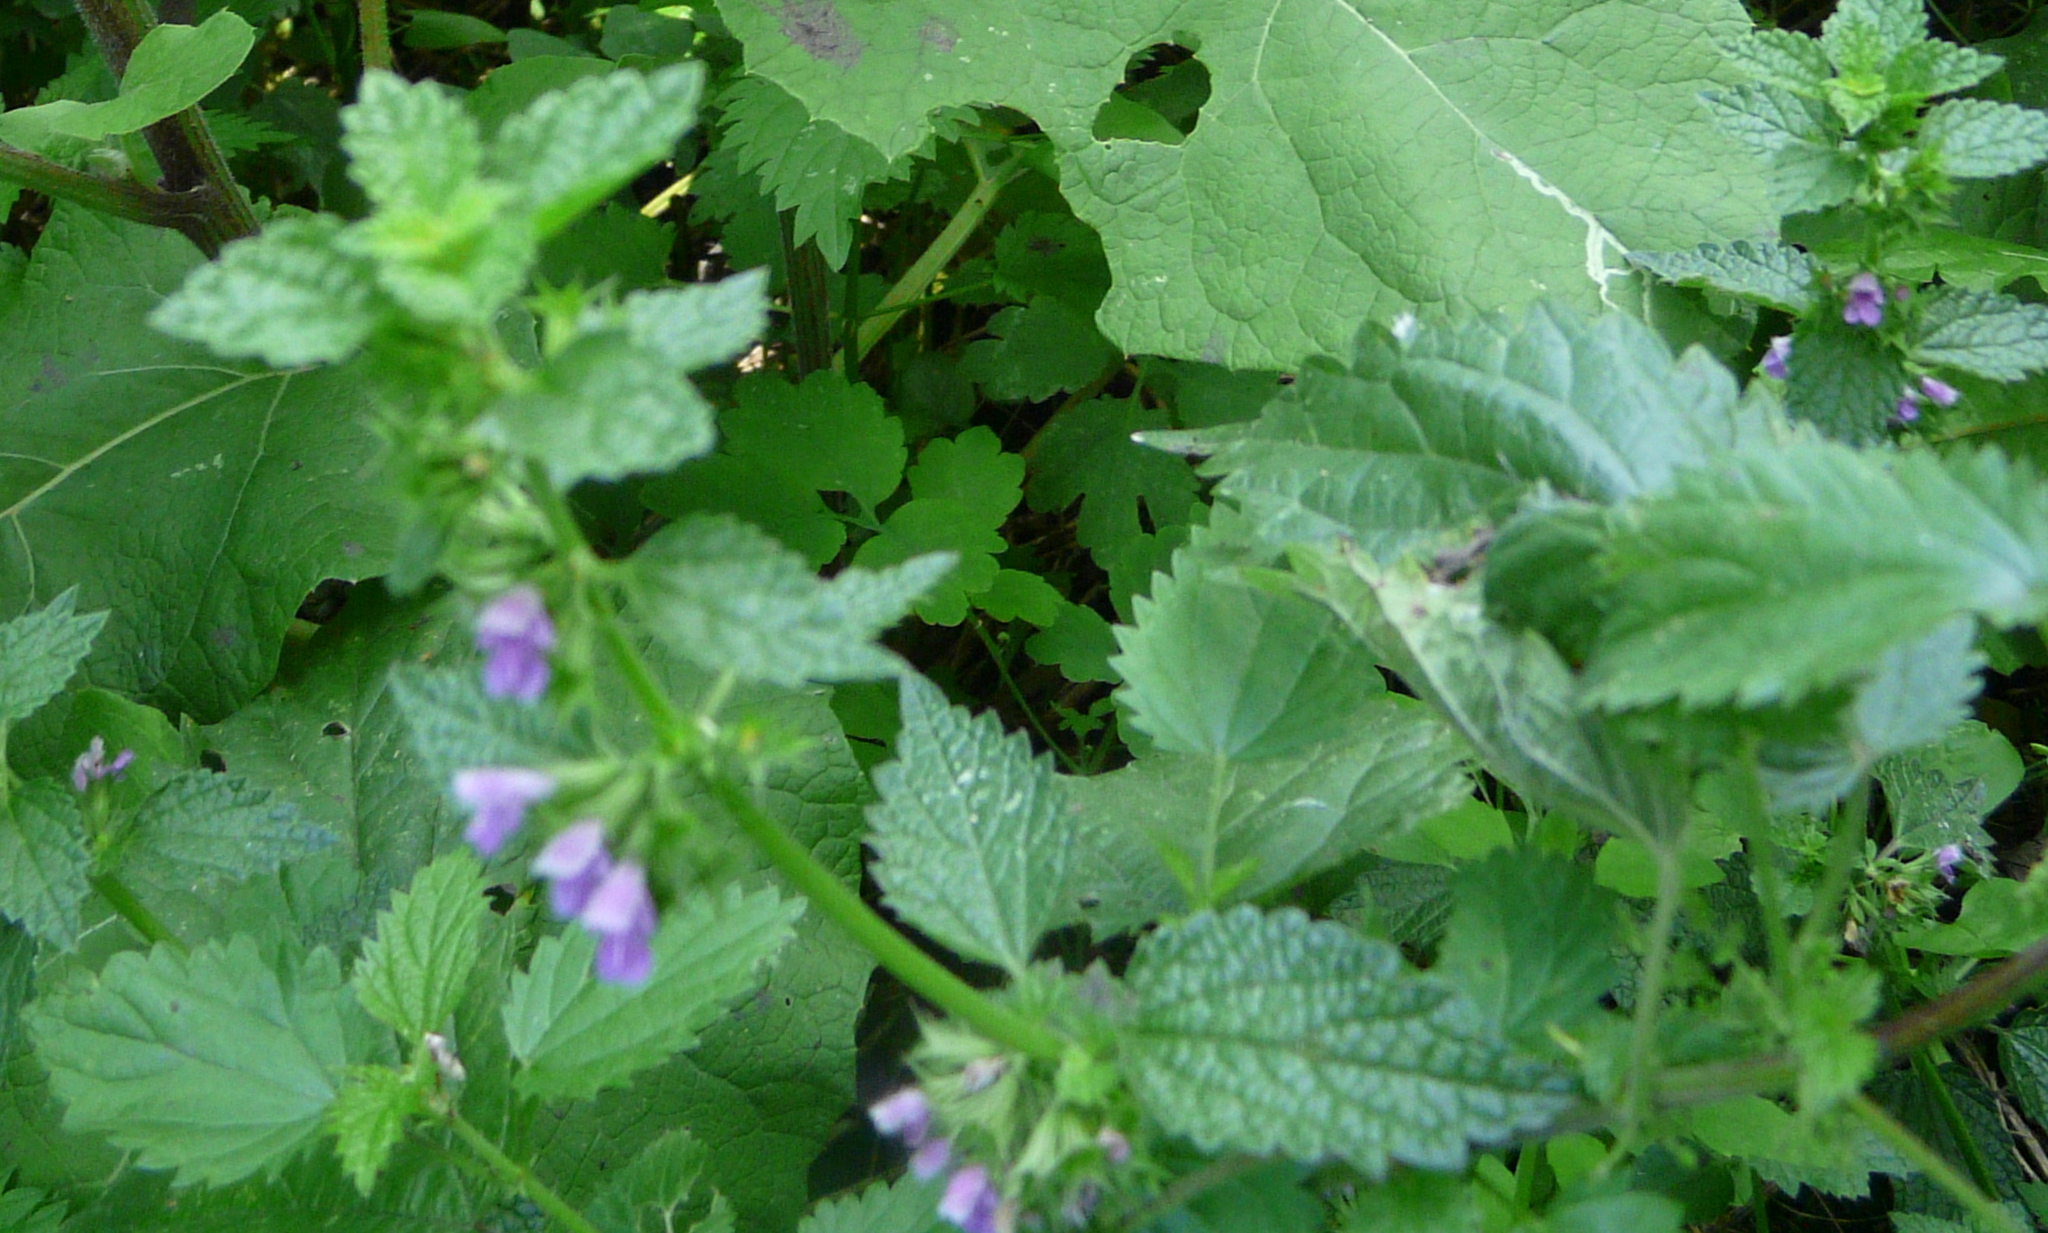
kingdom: Plantae
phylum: Tracheophyta
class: Magnoliopsida
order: Lamiales
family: Lamiaceae
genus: Ballota
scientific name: Ballota nigra
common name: Black horehound
